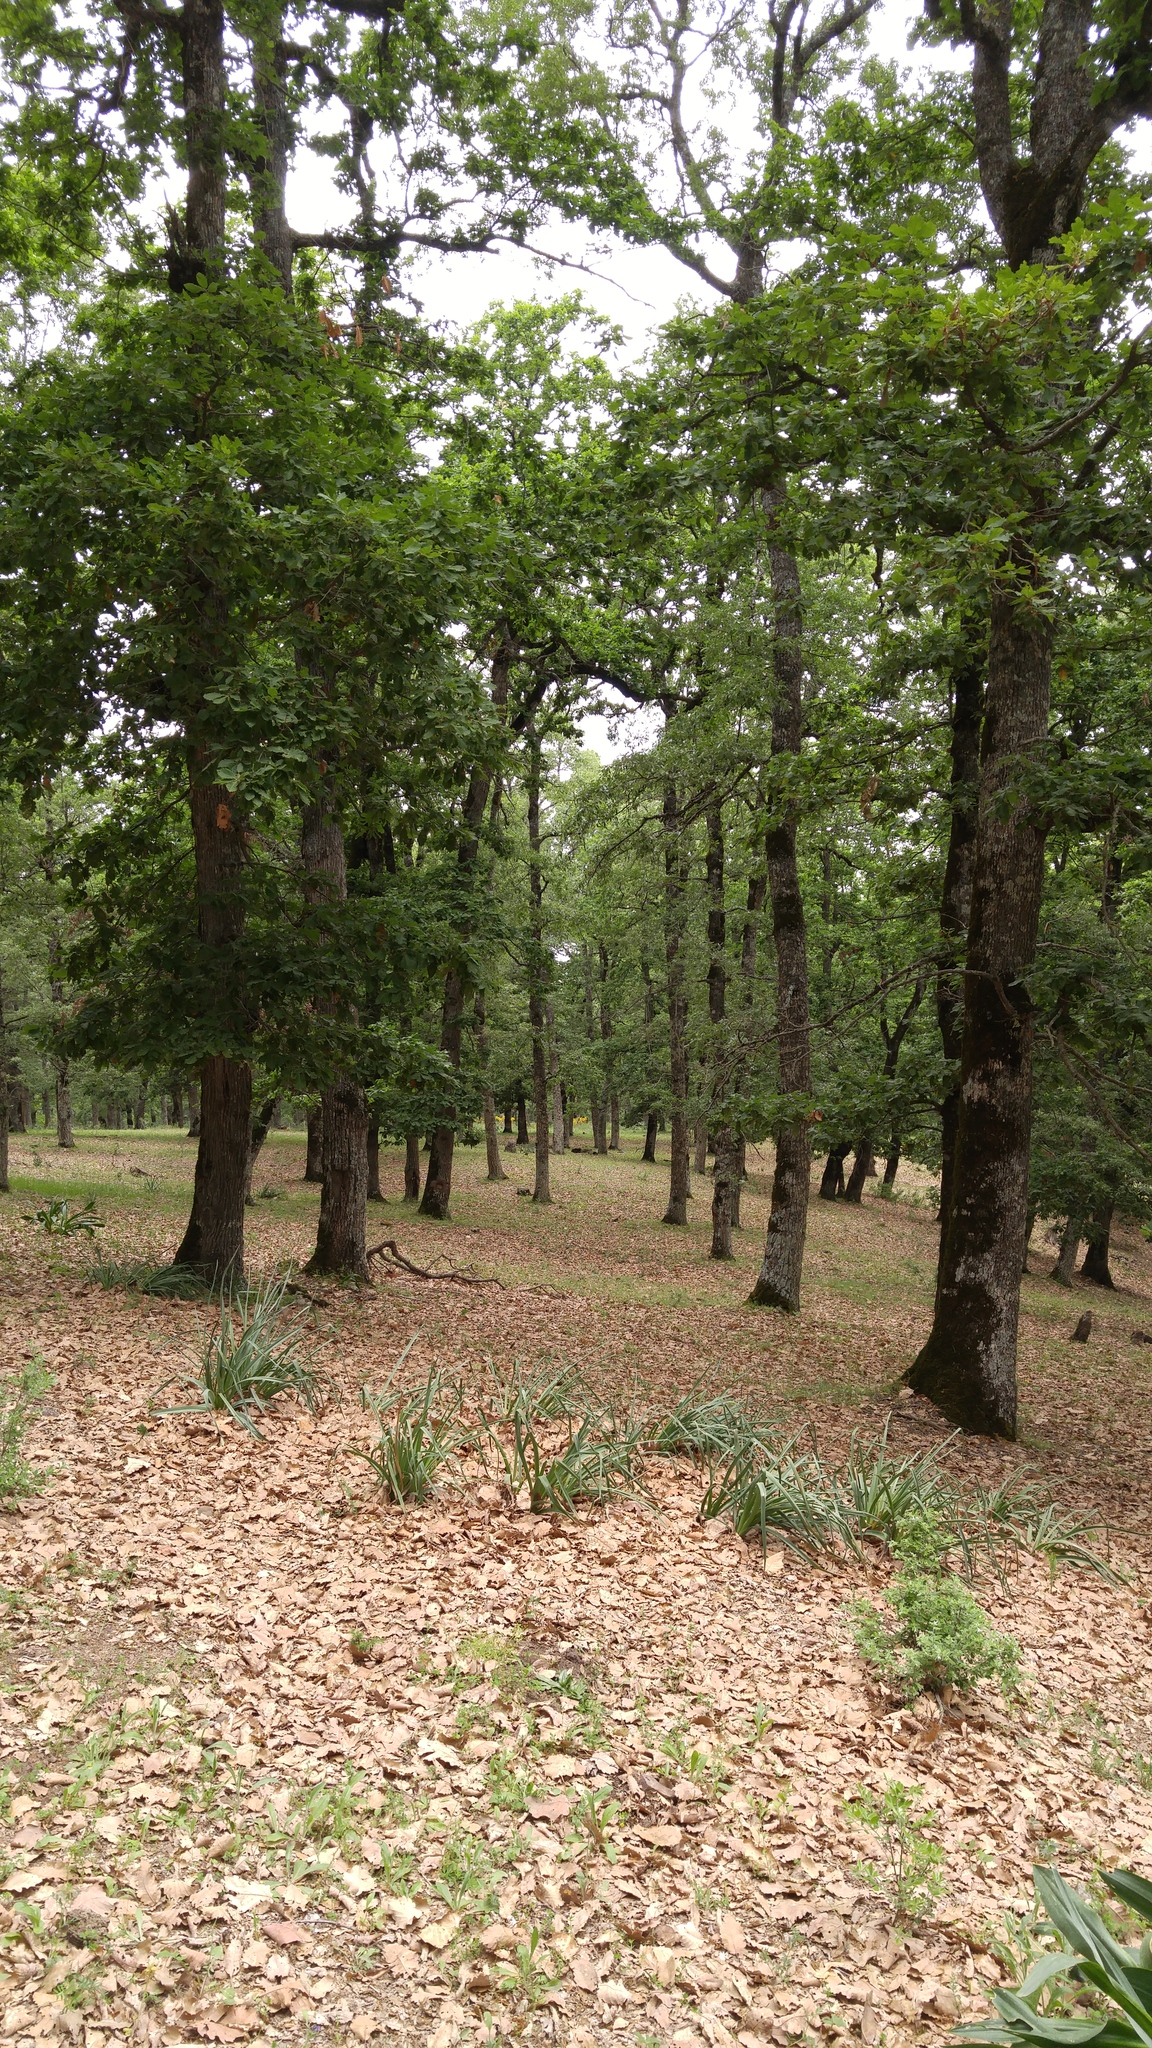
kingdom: Plantae
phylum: Tracheophyta
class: Magnoliopsida
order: Fagales
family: Fagaceae
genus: Quercus
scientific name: Quercus canariensis
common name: Algerian oak
